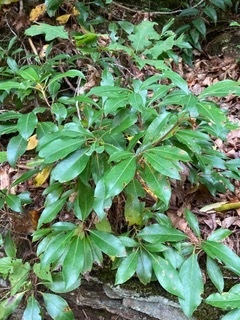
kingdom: Plantae
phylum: Tracheophyta
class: Magnoliopsida
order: Ericales
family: Ericaceae
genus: Kalmia
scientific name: Kalmia latifolia
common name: Mountain-laurel
